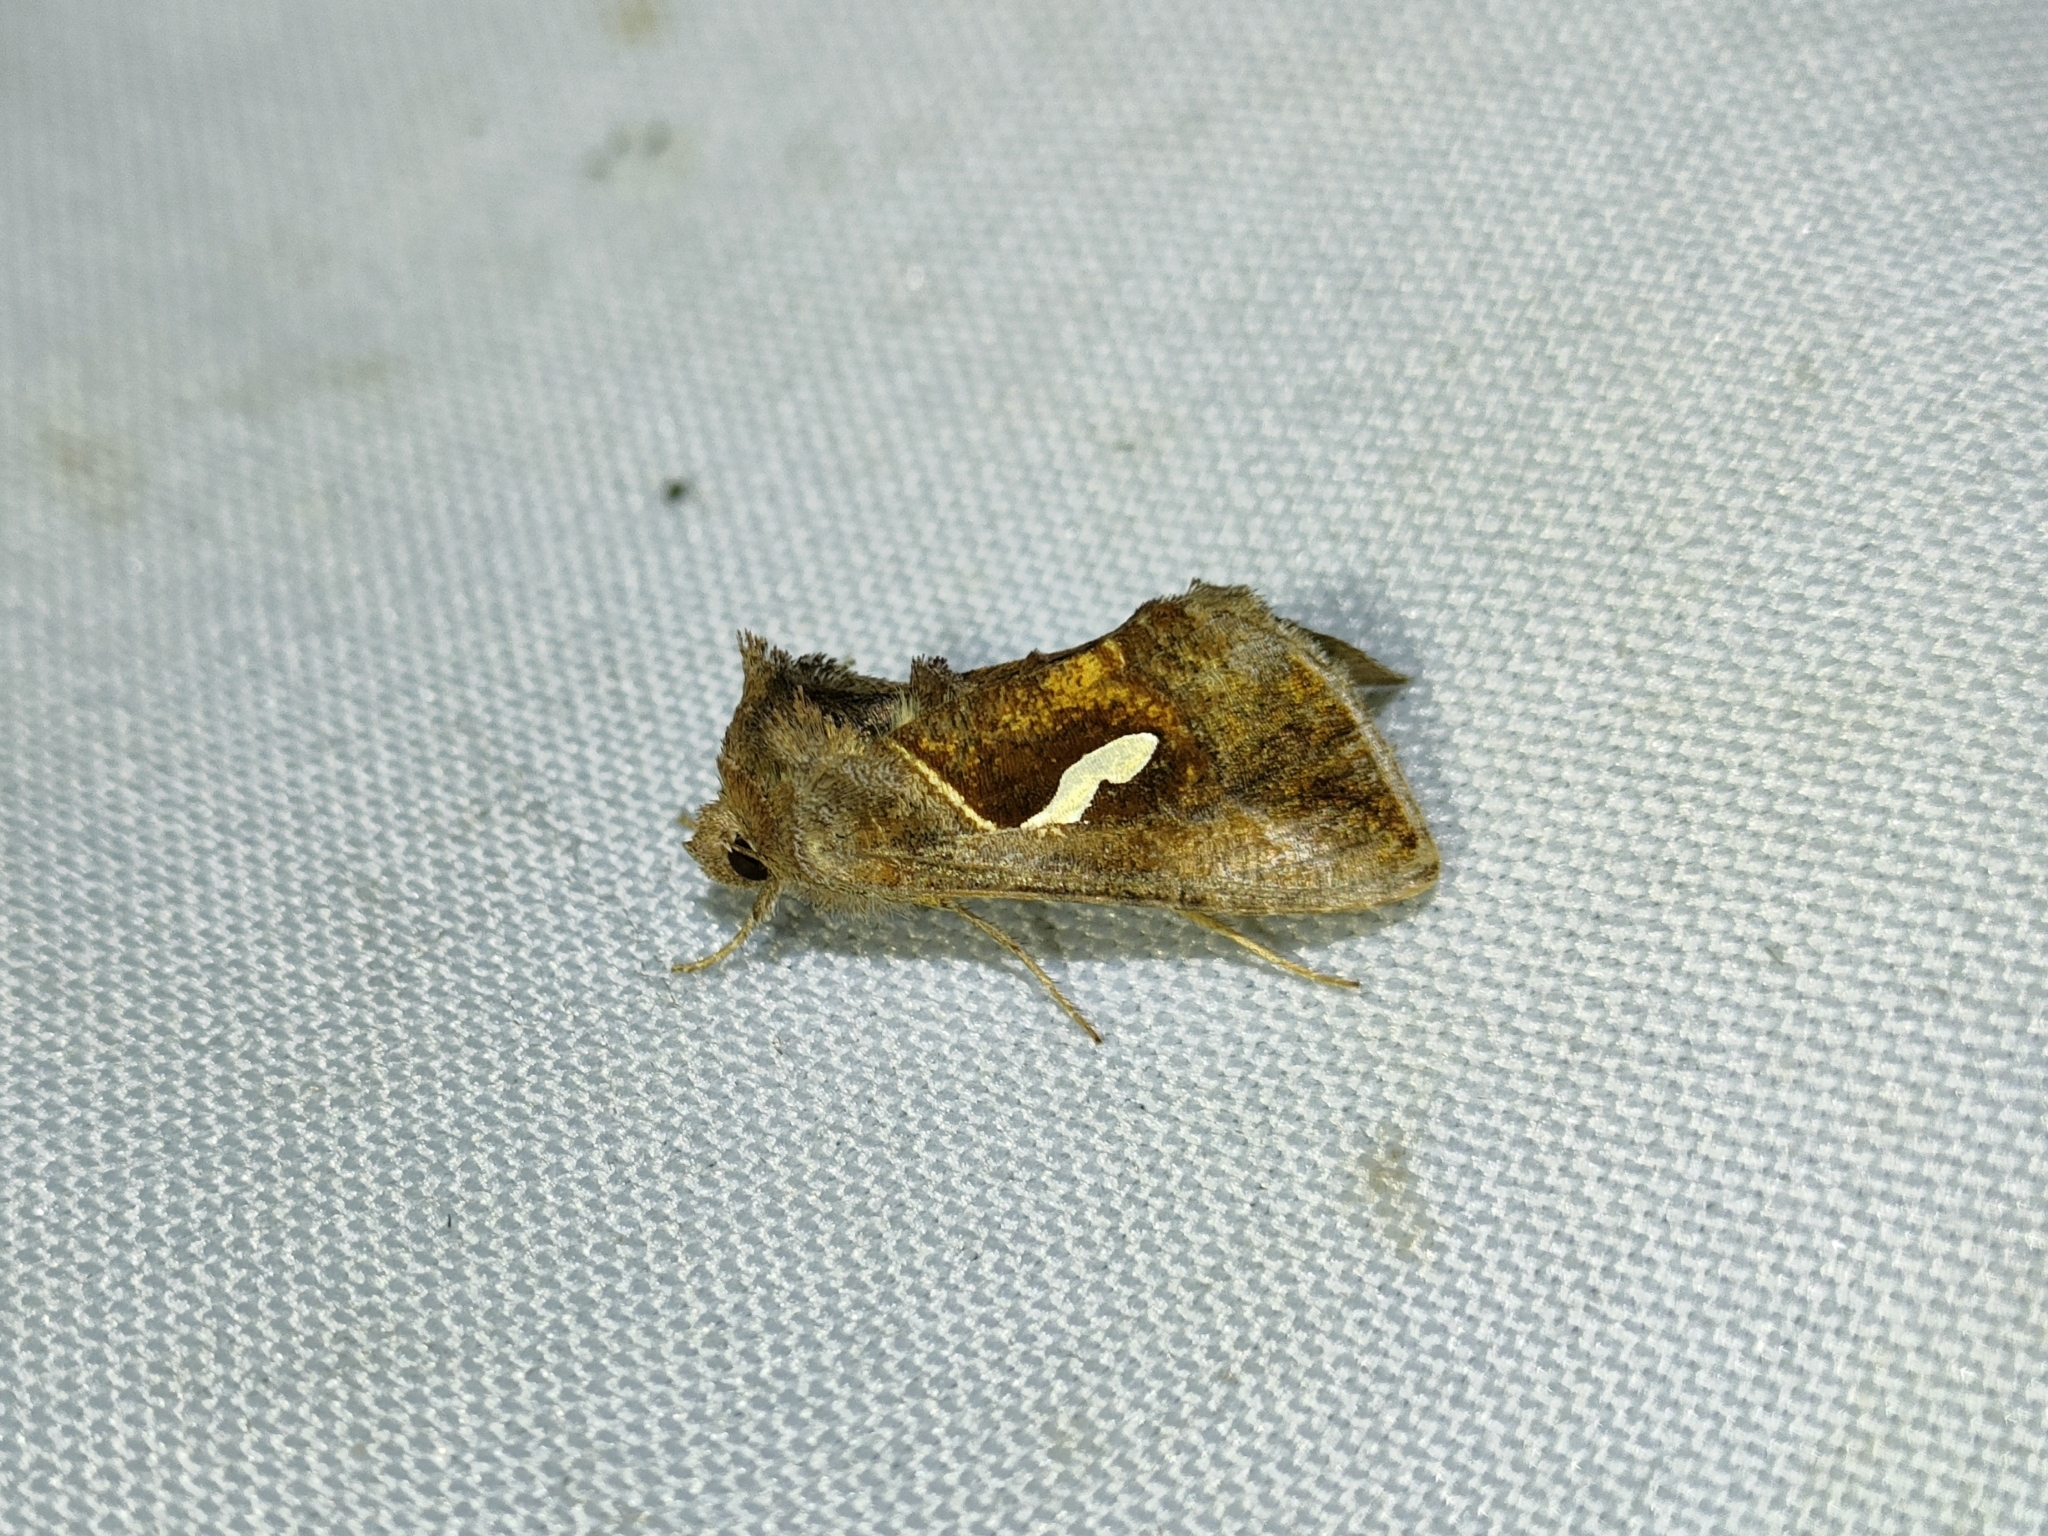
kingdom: Animalia
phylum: Arthropoda
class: Insecta
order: Lepidoptera
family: Noctuidae
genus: Macdunnoughia
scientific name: Macdunnoughia confusa
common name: Dewick's plusia
